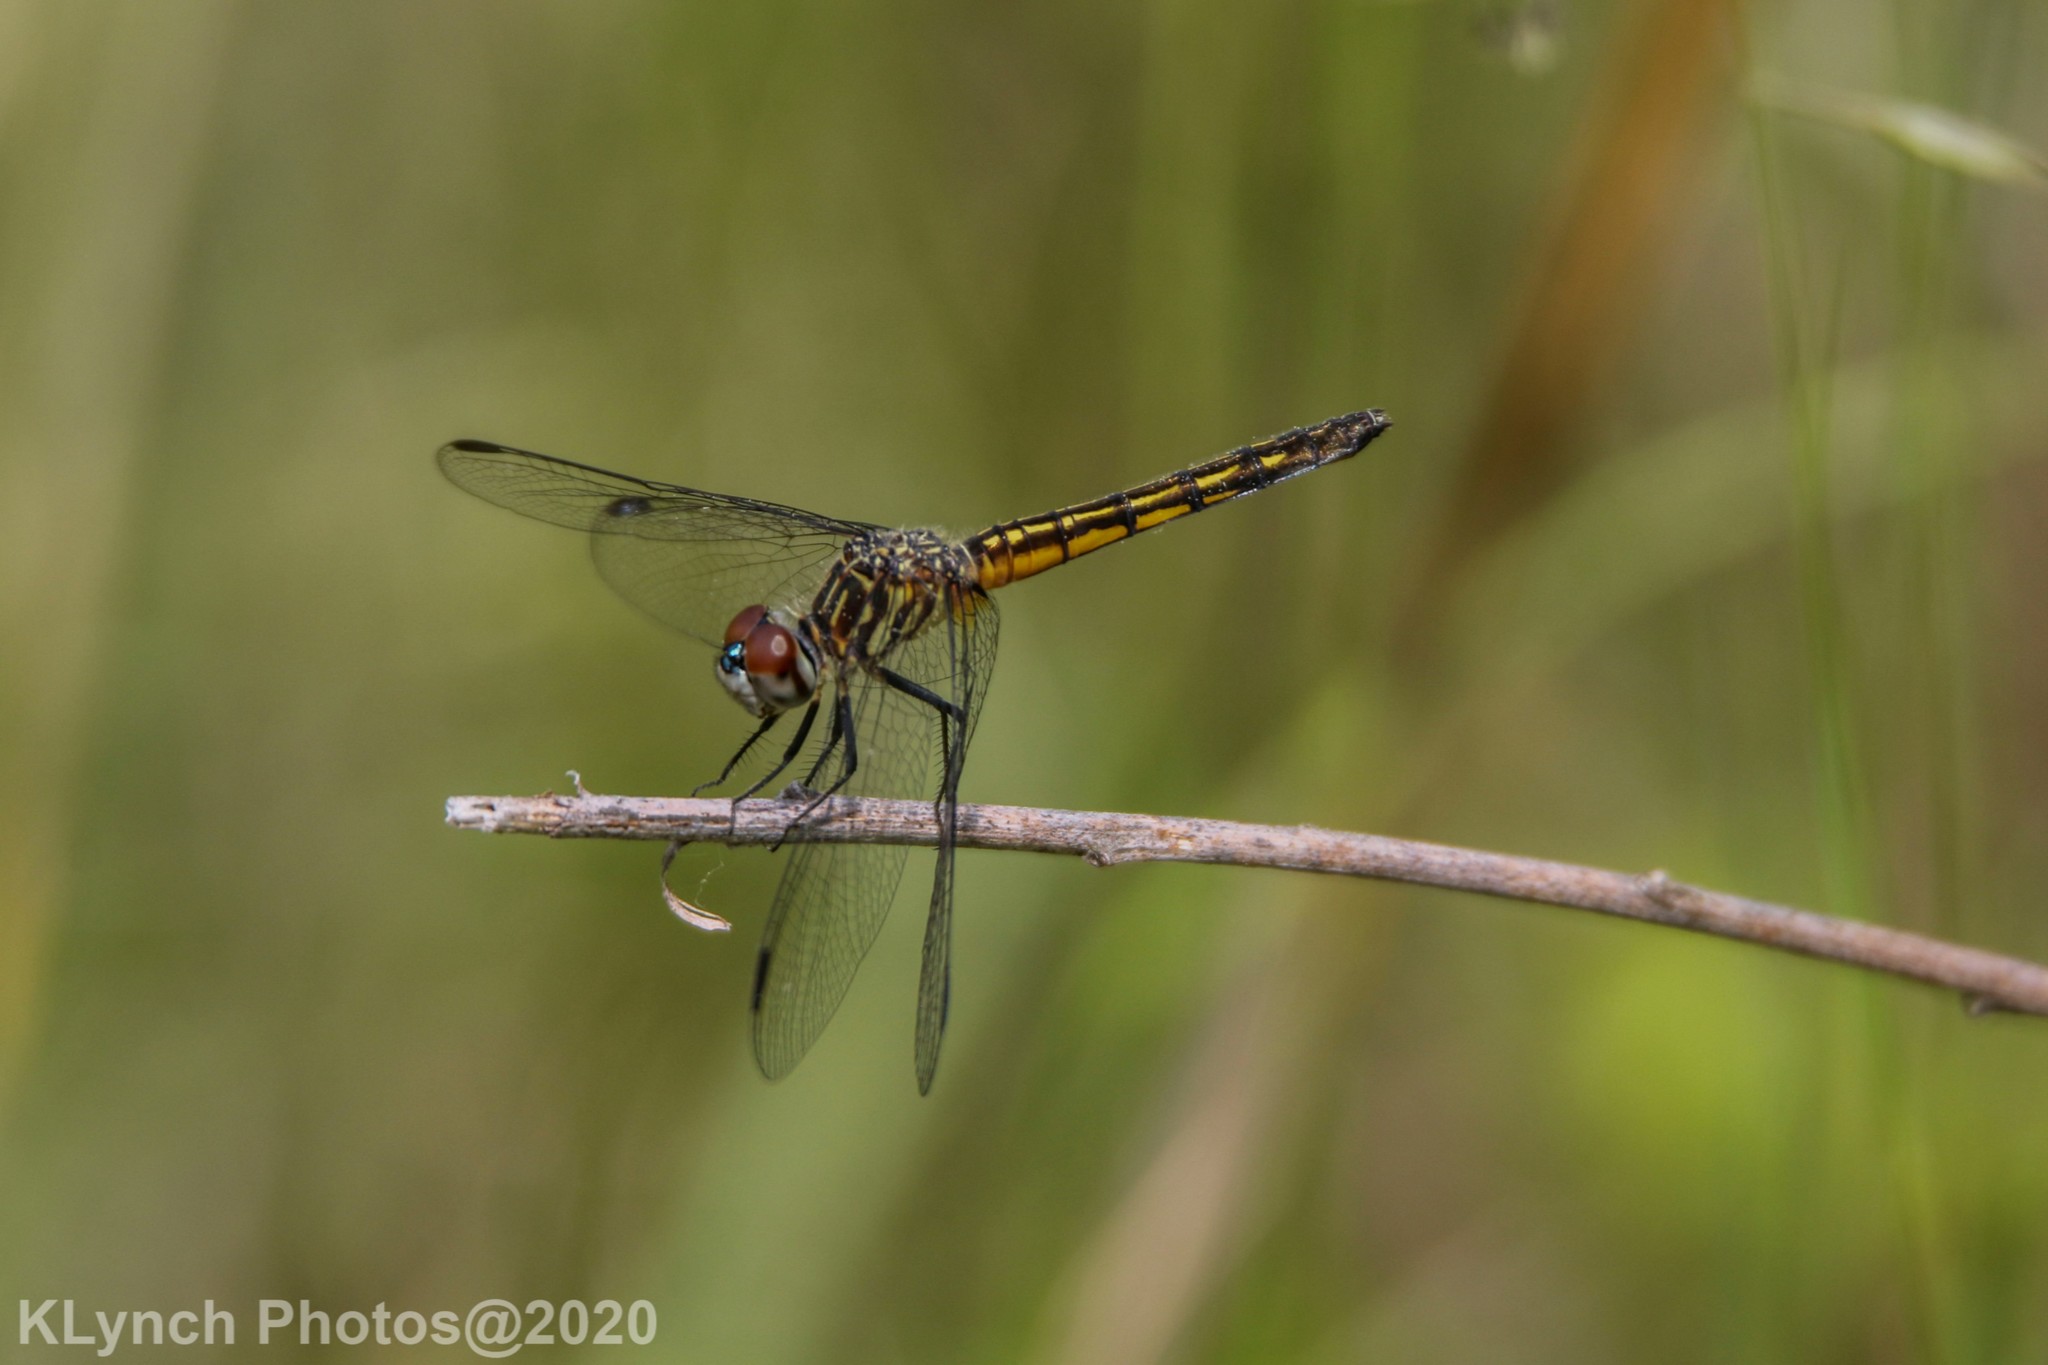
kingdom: Animalia
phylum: Arthropoda
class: Insecta
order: Odonata
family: Libellulidae
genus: Pachydiplax
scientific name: Pachydiplax longipennis
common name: Blue dasher
